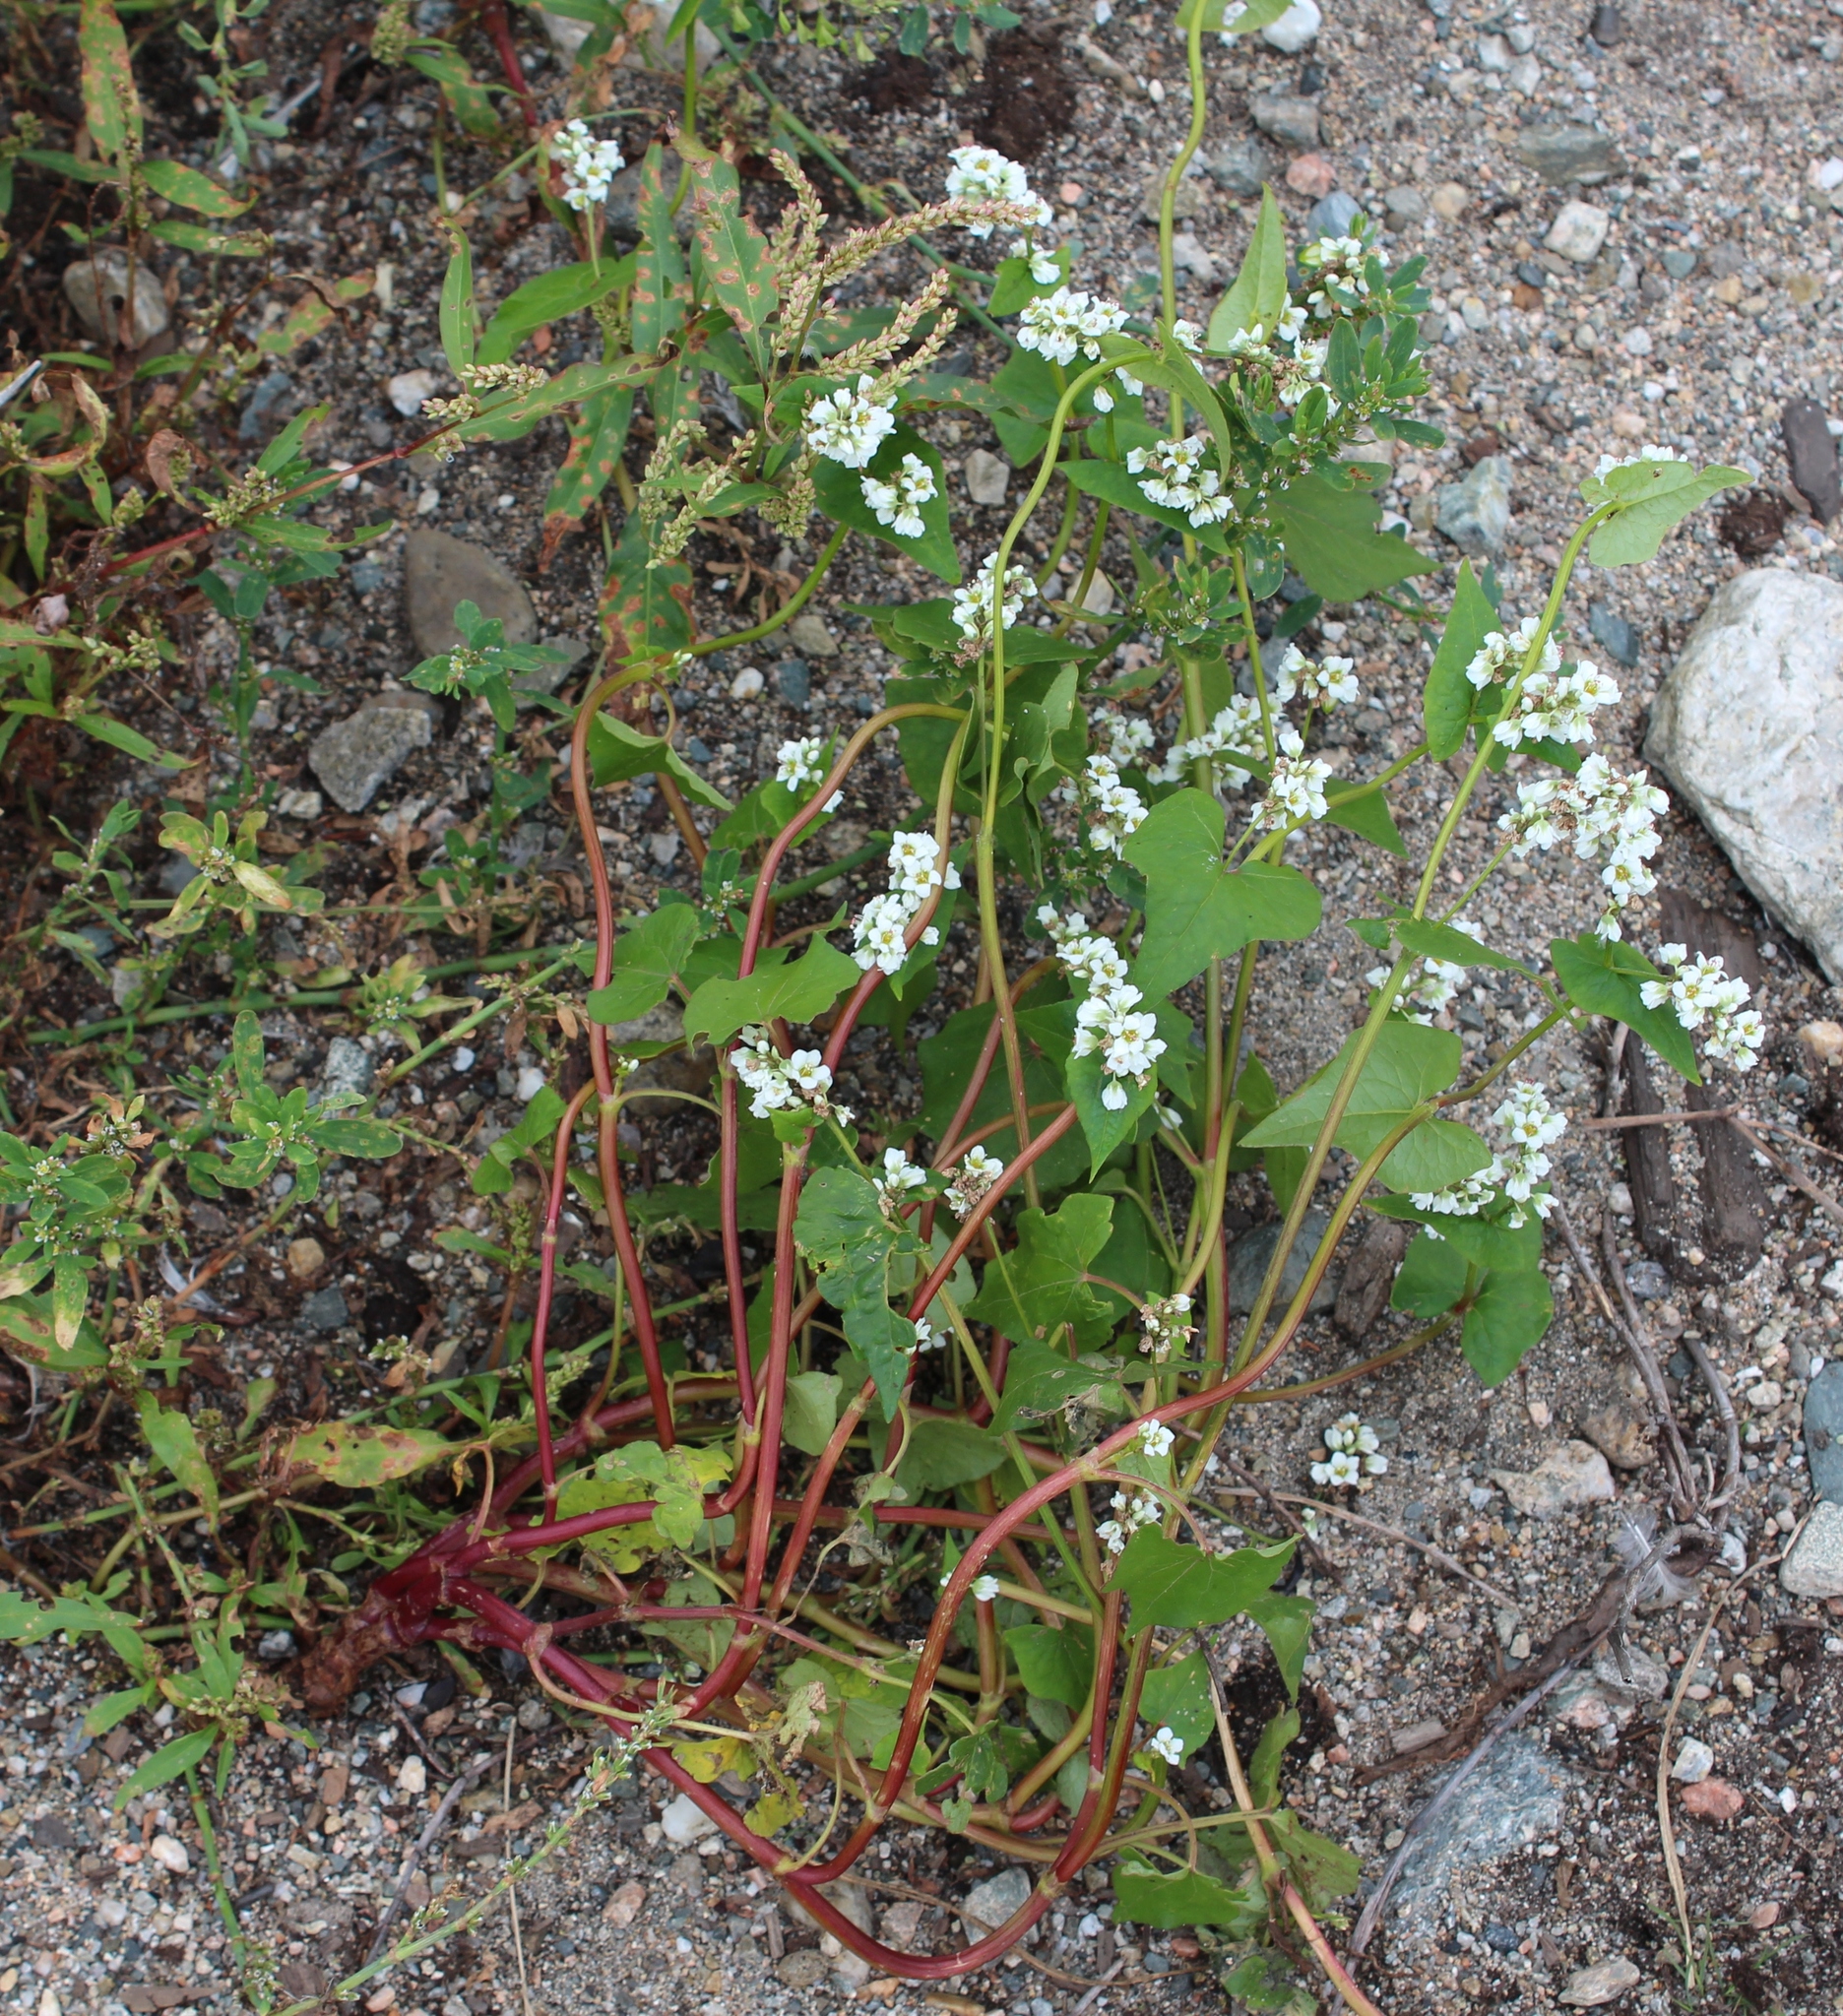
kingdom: Plantae
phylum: Tracheophyta
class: Magnoliopsida
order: Caryophyllales
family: Polygonaceae
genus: Fagopyrum
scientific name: Fagopyrum esculentum
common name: Buckwheat
